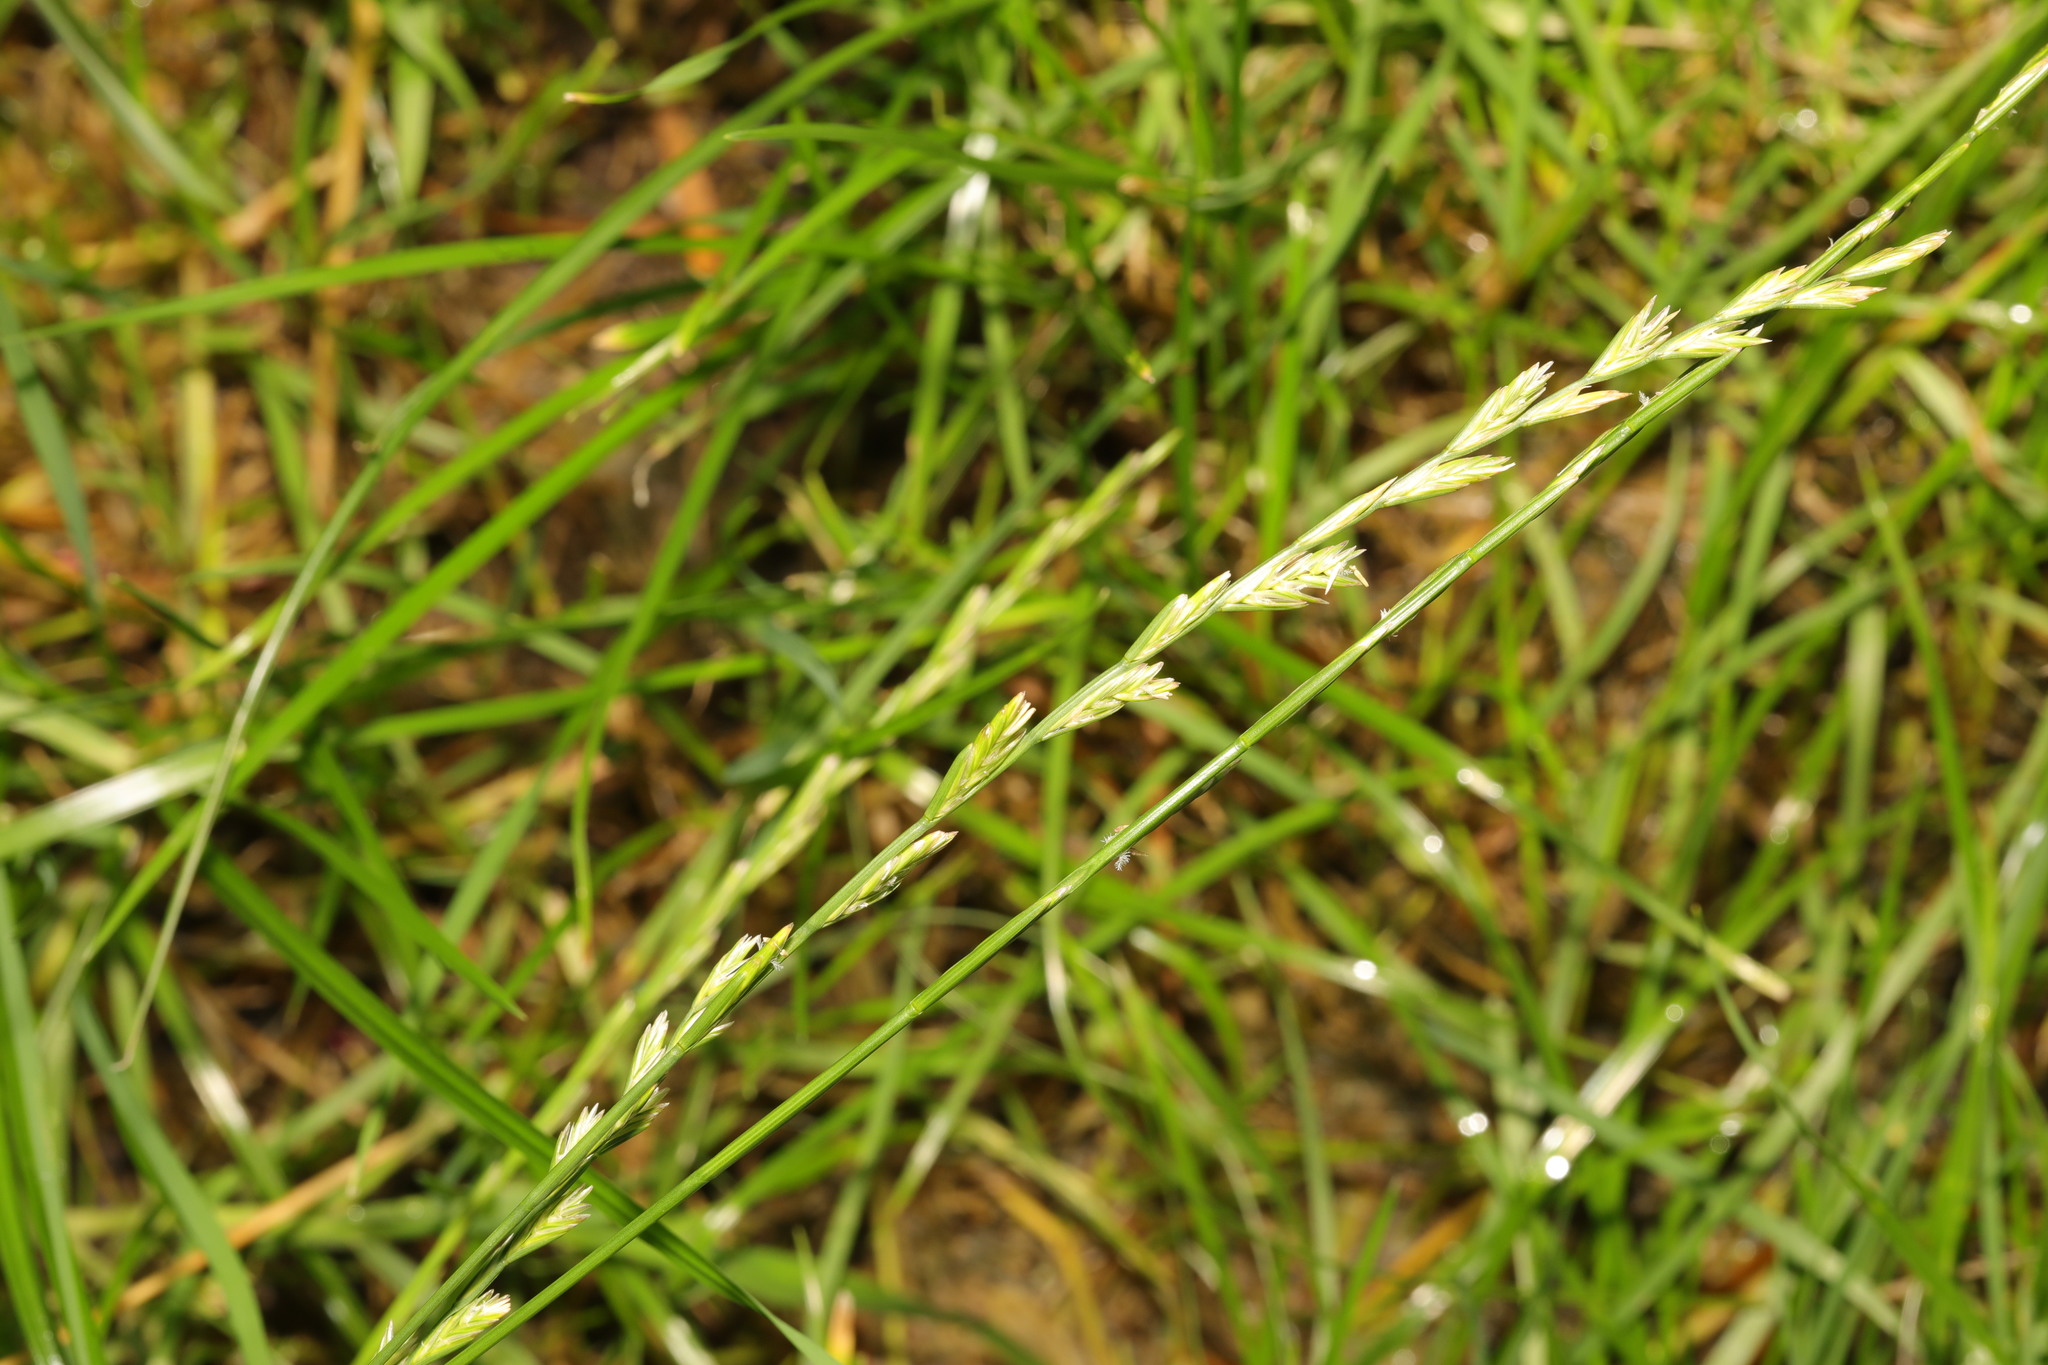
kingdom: Plantae
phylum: Tracheophyta
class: Liliopsida
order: Poales
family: Poaceae
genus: Lolium
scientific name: Lolium perenne
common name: Perennial ryegrass
